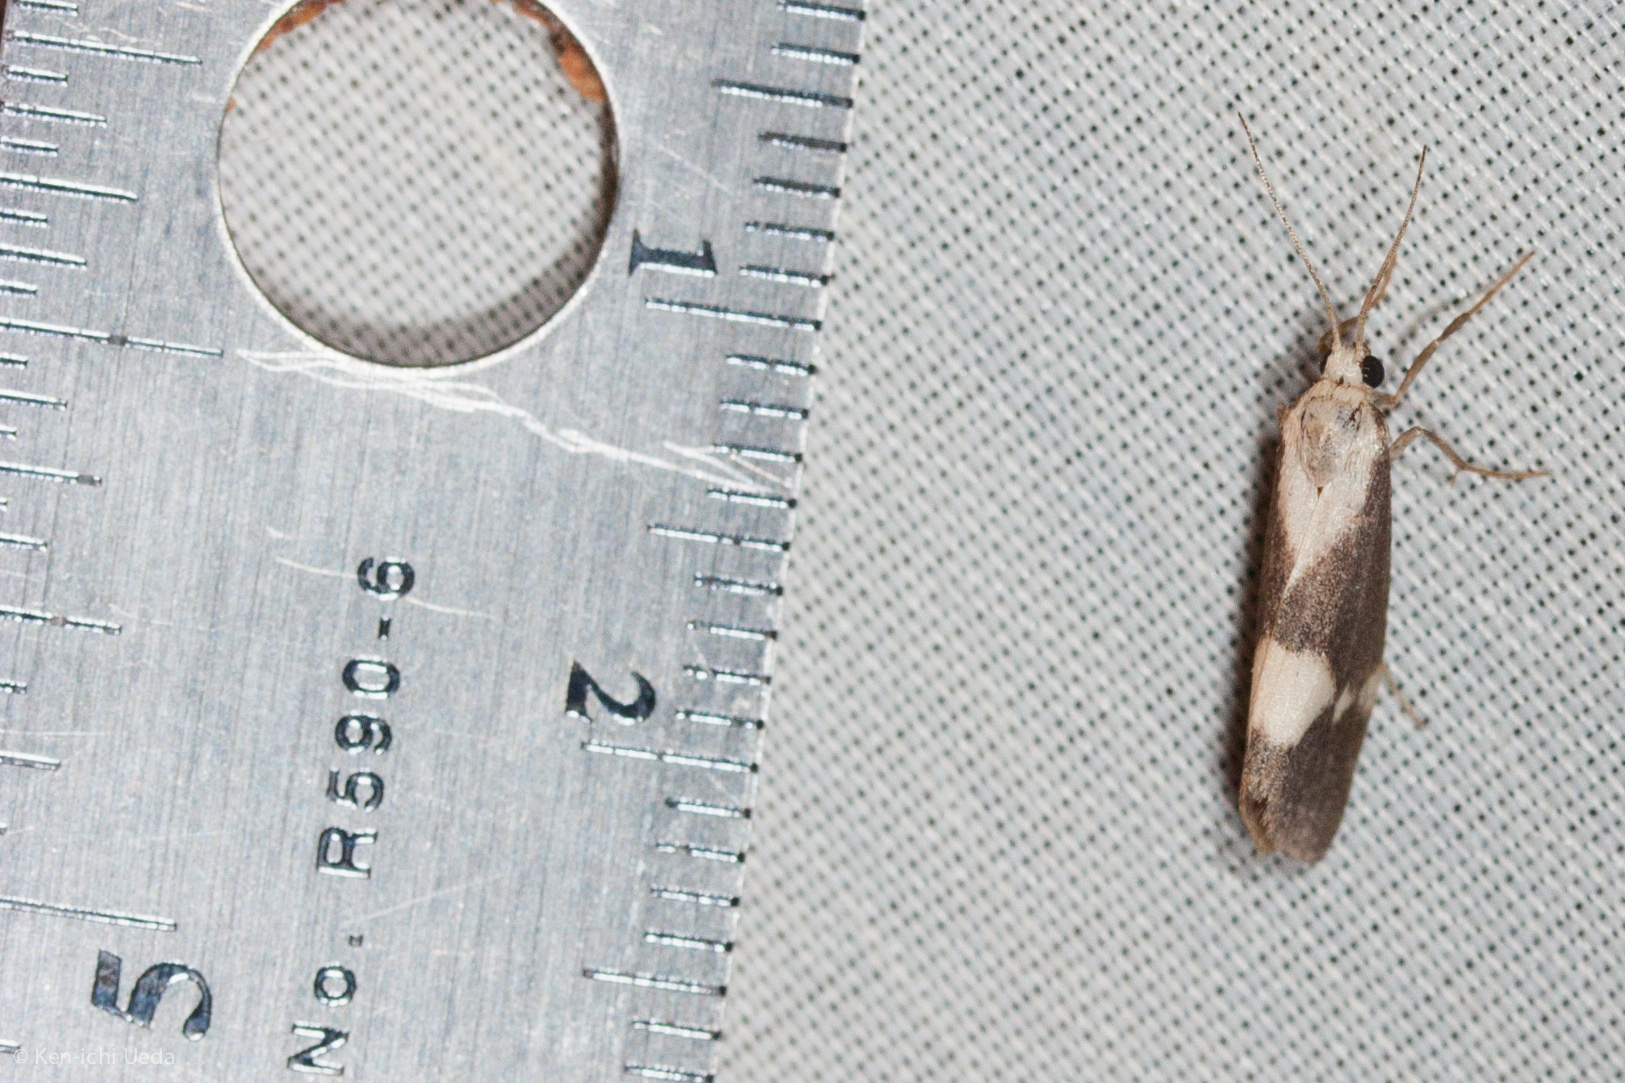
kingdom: Animalia
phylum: Arthropoda
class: Insecta
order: Lepidoptera
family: Erebidae
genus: Cisthene
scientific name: Cisthene faustinula
